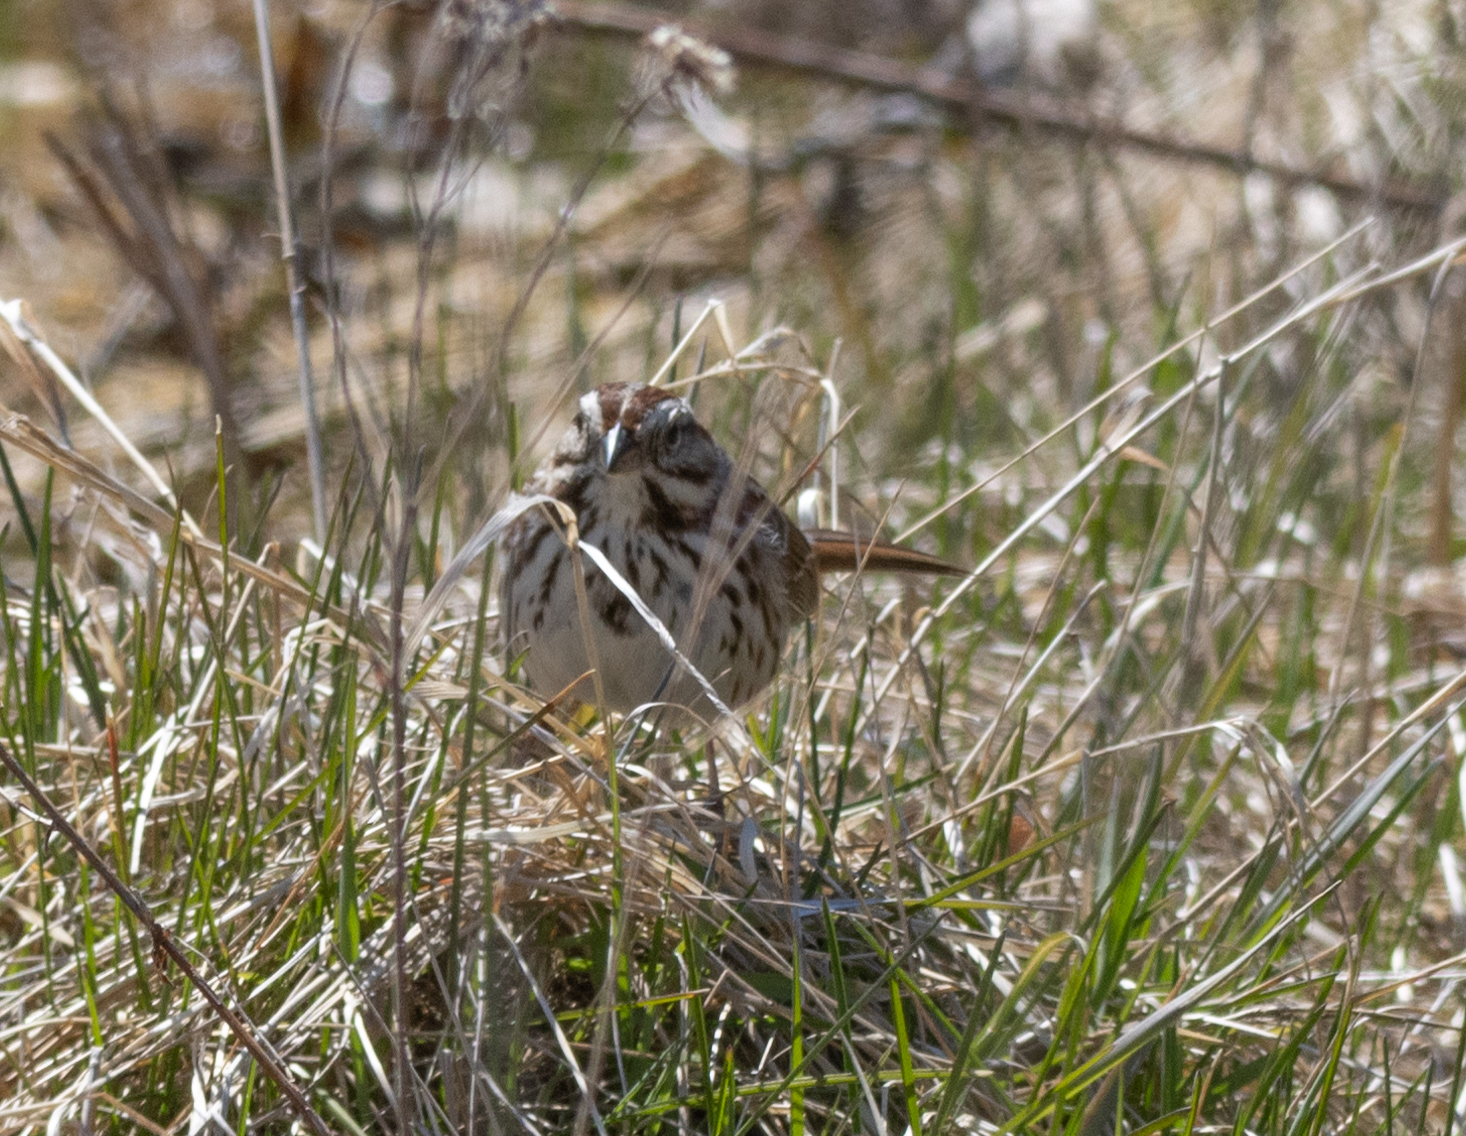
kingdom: Animalia
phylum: Chordata
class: Aves
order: Passeriformes
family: Passerellidae
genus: Melospiza
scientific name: Melospiza melodia
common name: Song sparrow
